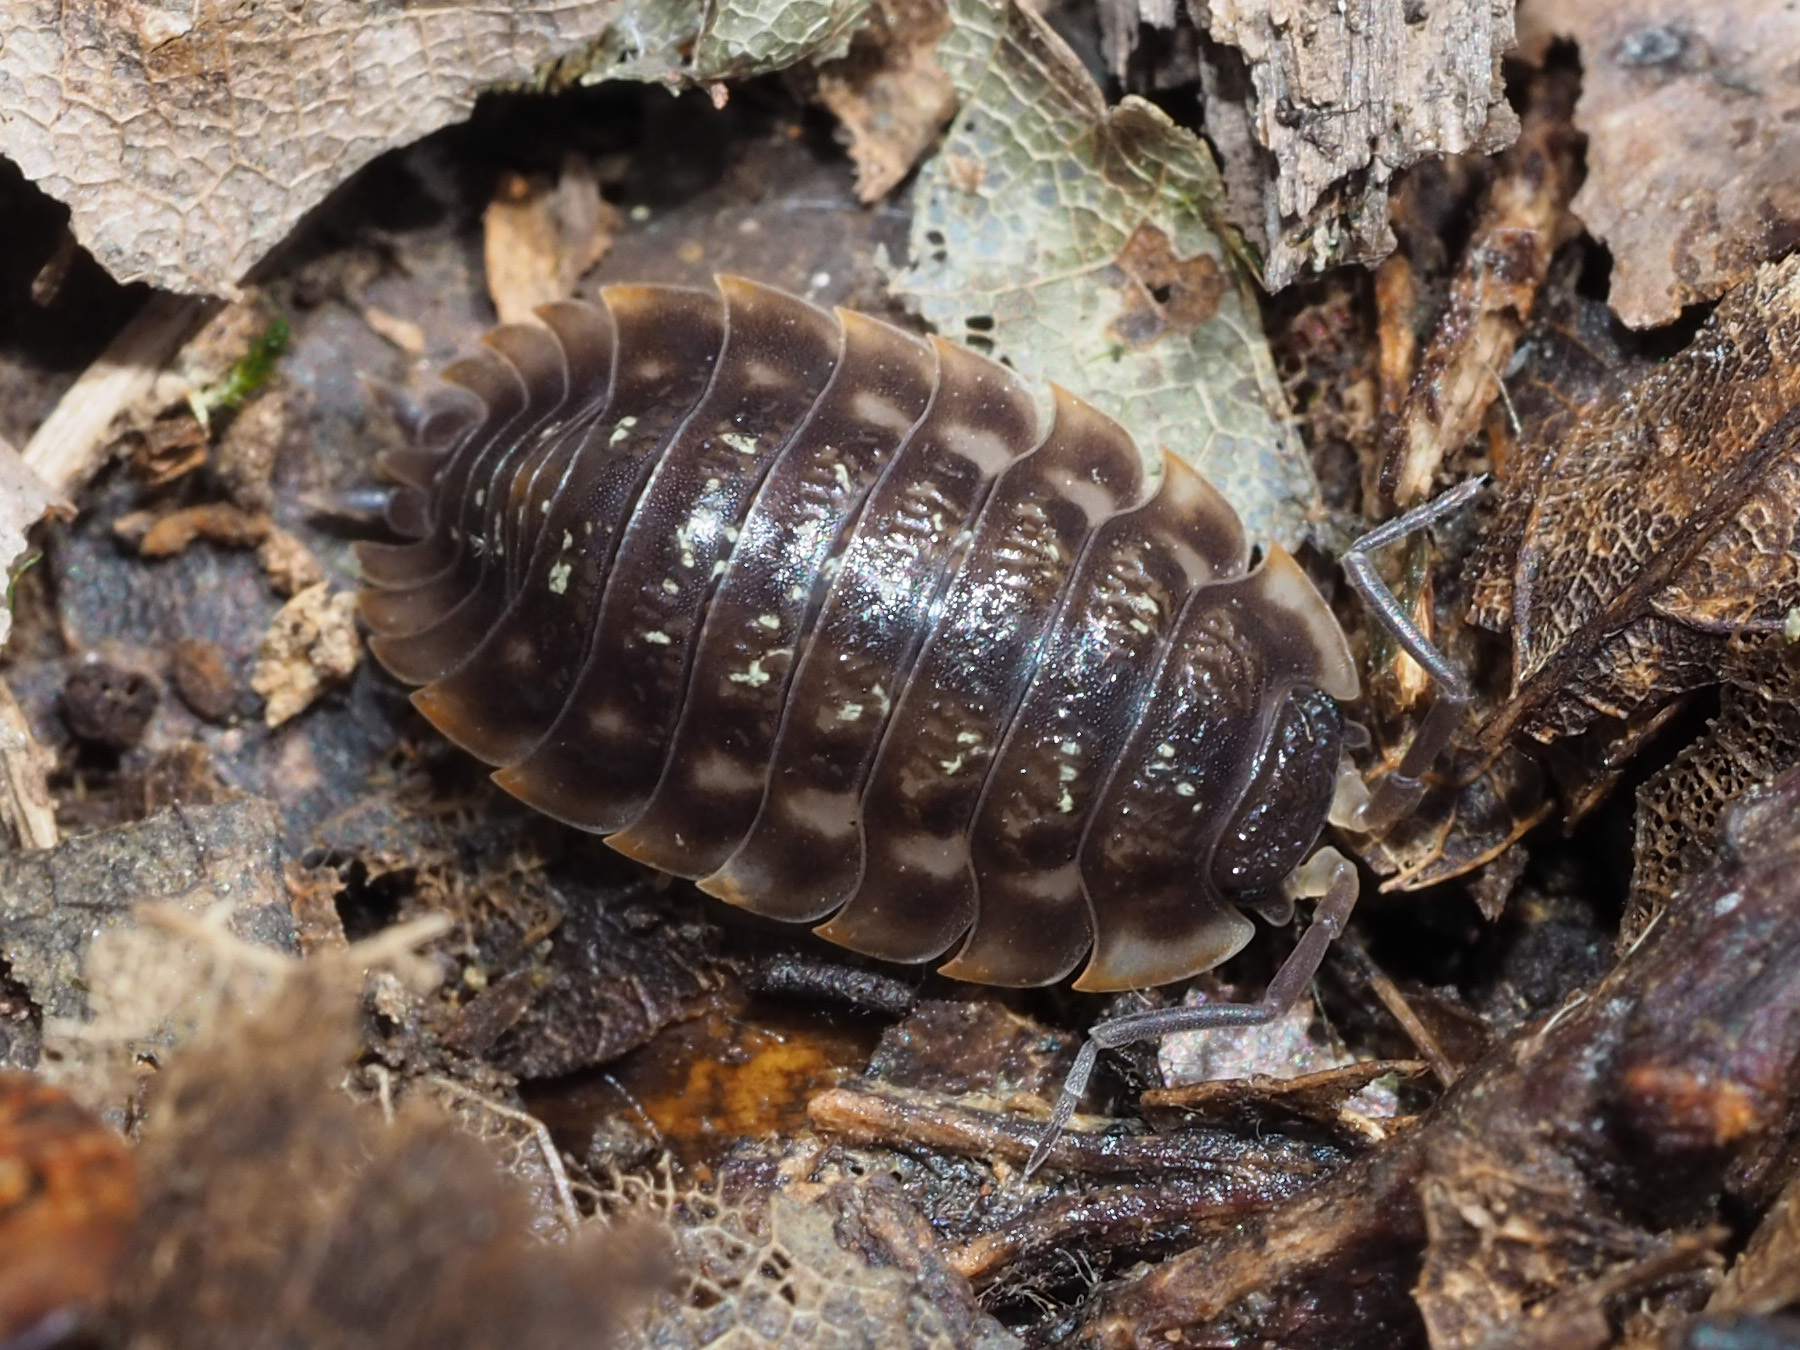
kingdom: Animalia
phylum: Arthropoda
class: Malacostraca
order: Isopoda
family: Oniscidae
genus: Oniscus
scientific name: Oniscus asellus
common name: Common shiny woodlouse
